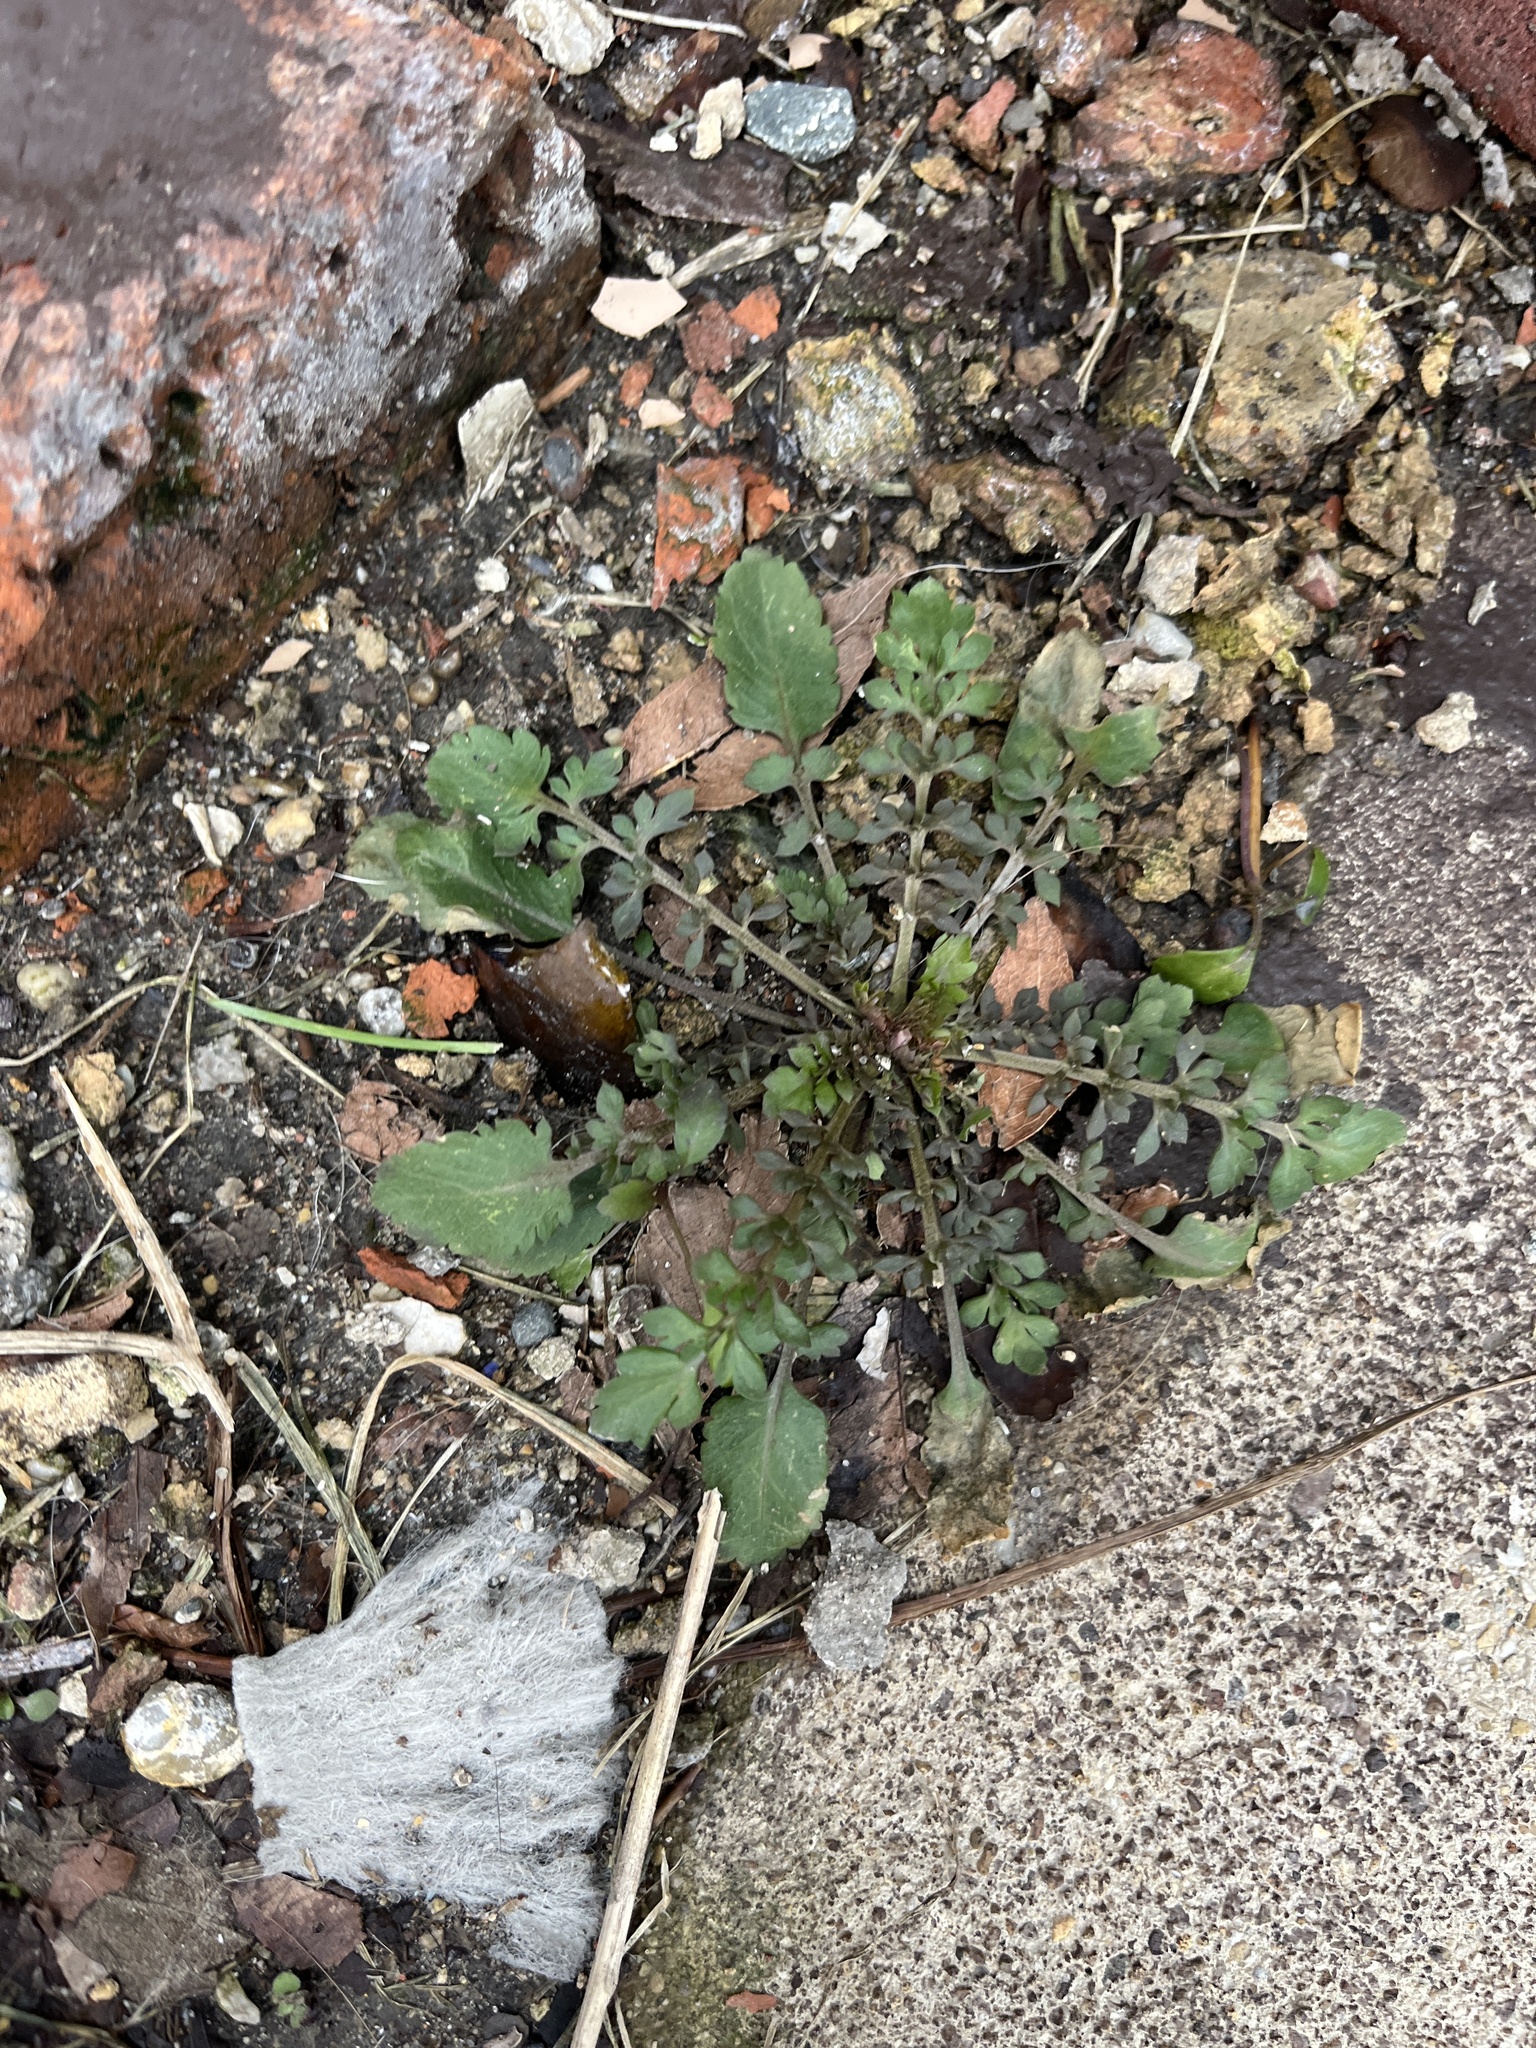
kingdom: Plantae
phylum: Tracheophyta
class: Magnoliopsida
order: Brassicales
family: Brassicaceae
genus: Rorippa
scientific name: Rorippa palustris
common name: Marsh yellow-cress
